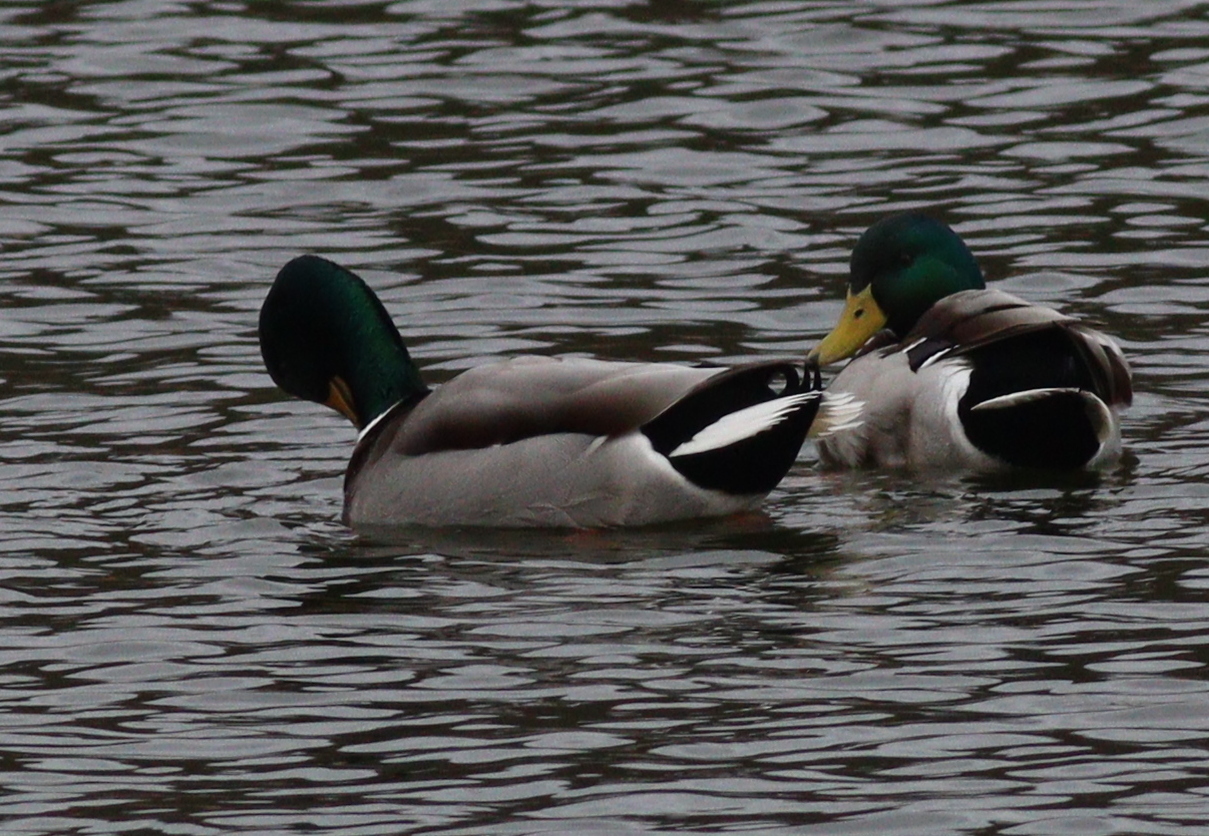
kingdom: Animalia
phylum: Chordata
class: Aves
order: Anseriformes
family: Anatidae
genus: Anas
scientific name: Anas platyrhynchos
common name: Mallard
